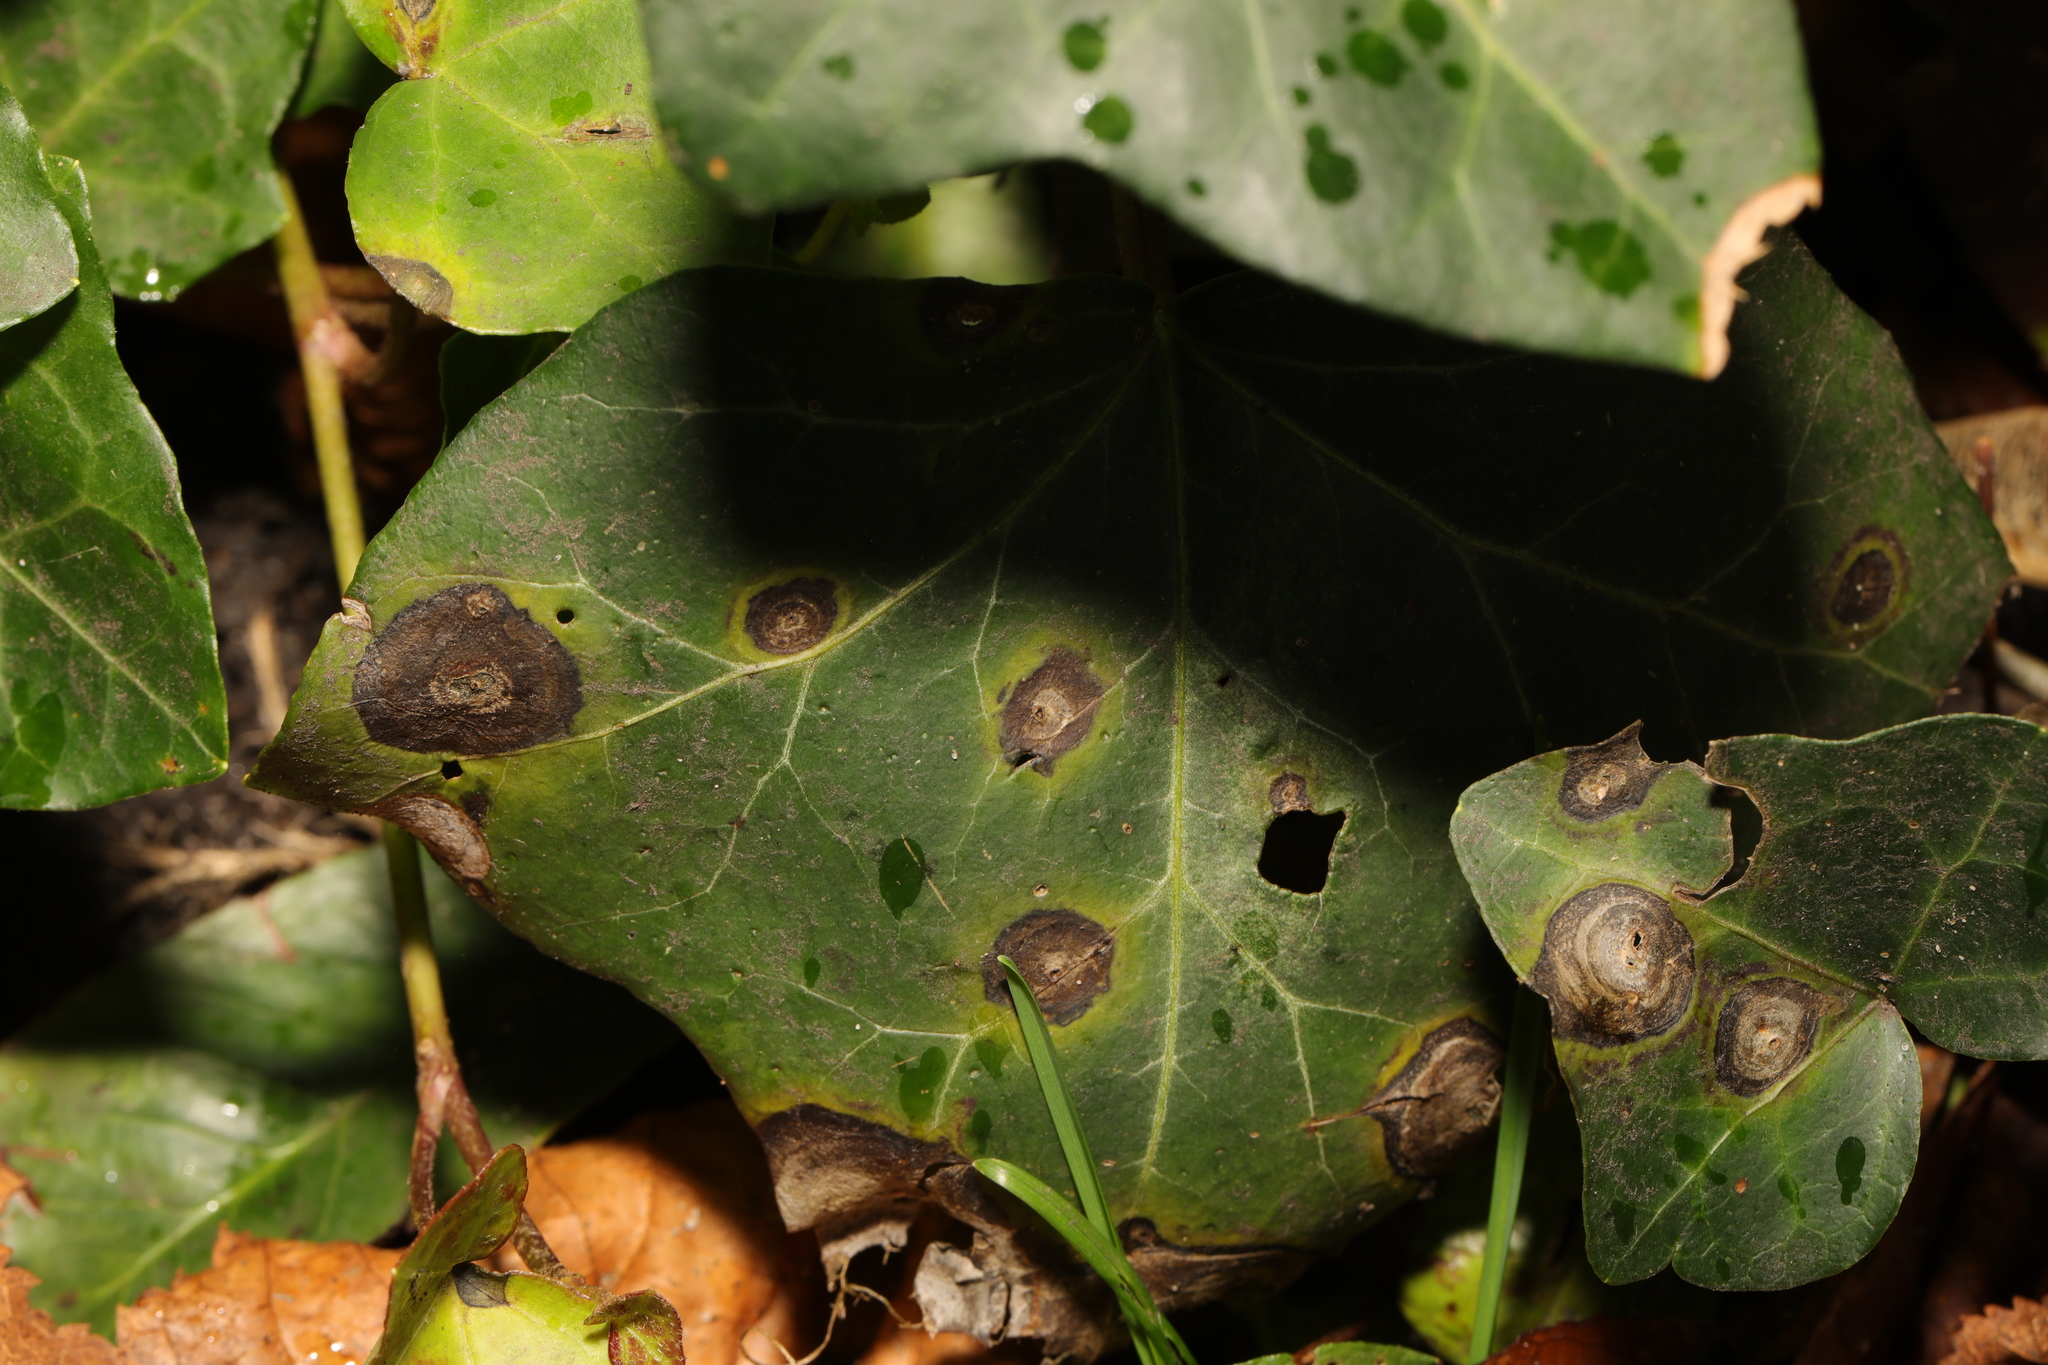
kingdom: Plantae
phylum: Tracheophyta
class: Magnoliopsida
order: Apiales
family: Araliaceae
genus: Hedera
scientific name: Hedera helix
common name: Ivy
